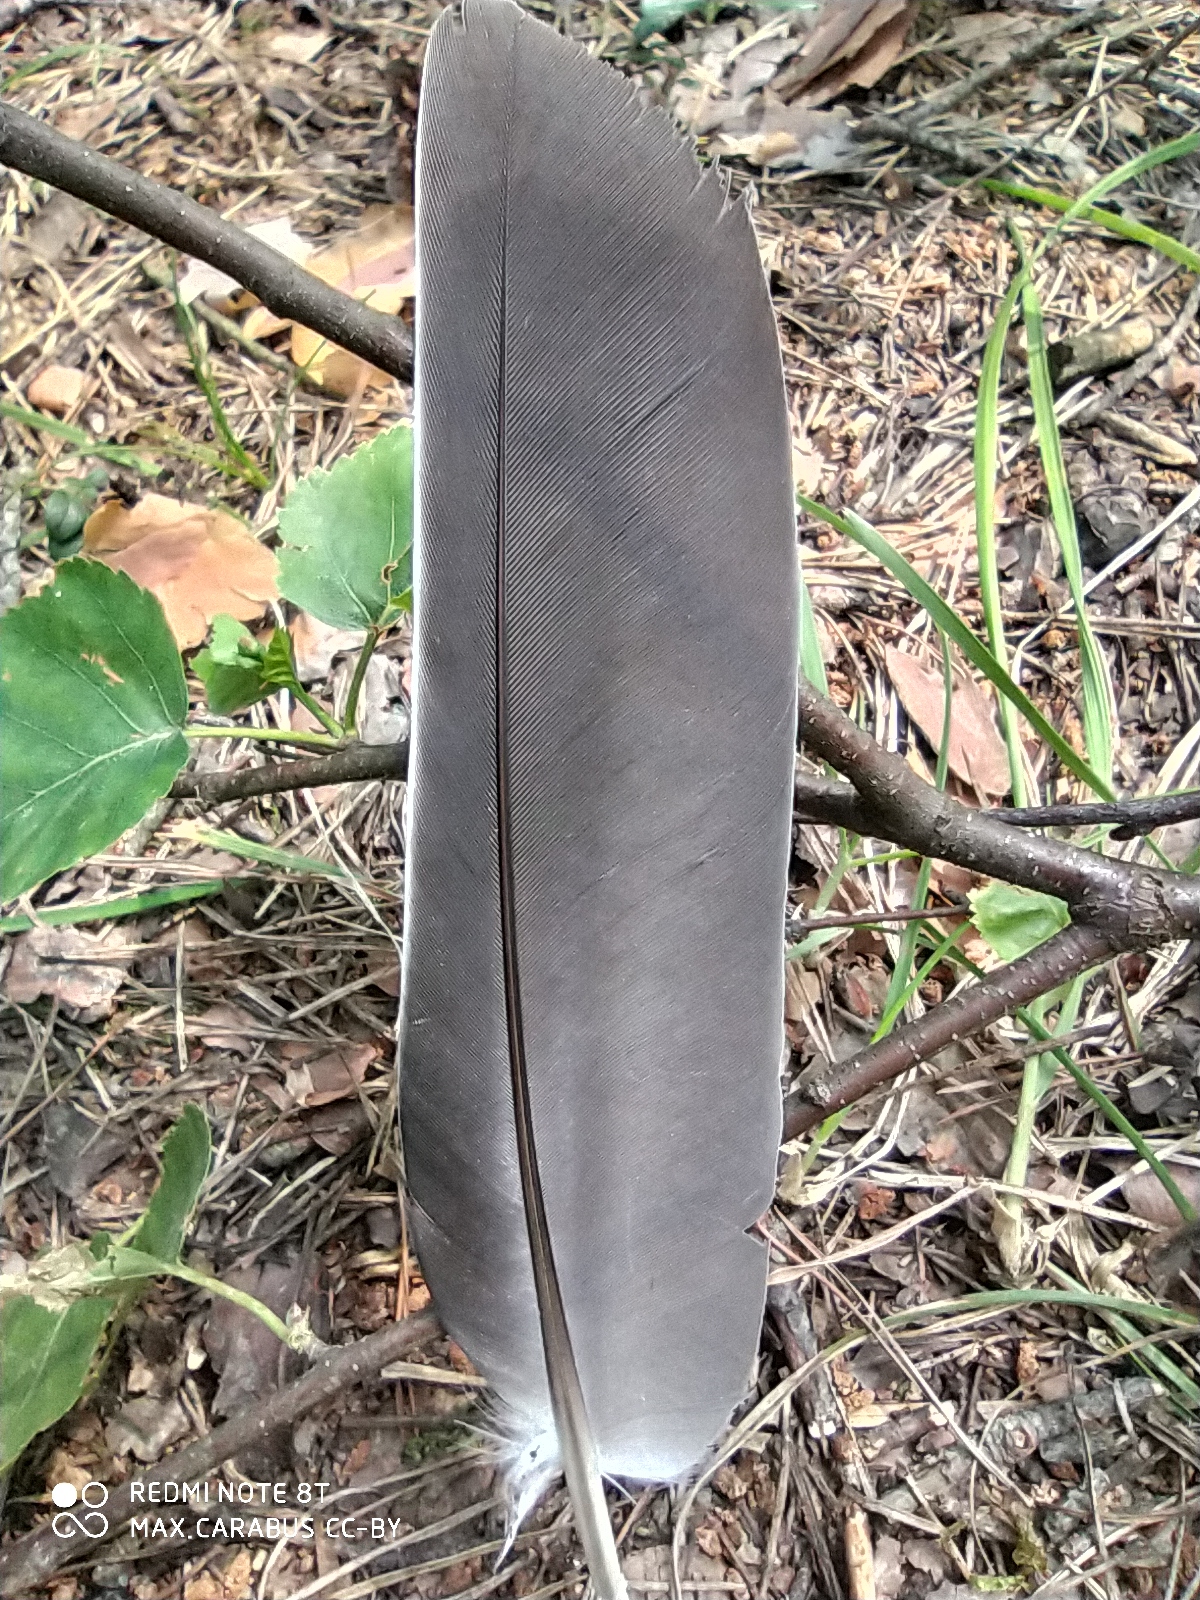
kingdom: Animalia
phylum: Chordata
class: Aves
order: Columbiformes
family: Columbidae
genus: Columba
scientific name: Columba palumbus
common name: Common wood pigeon
